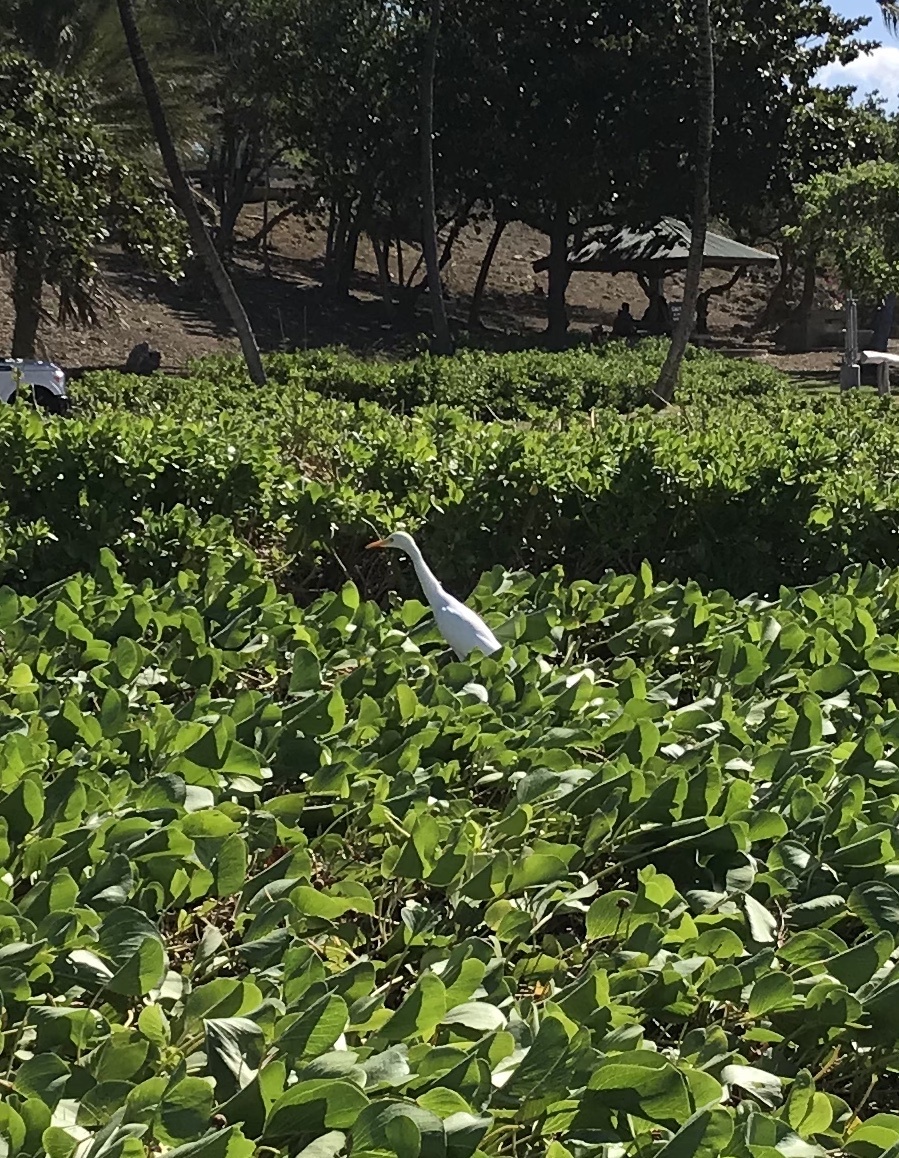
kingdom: Animalia
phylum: Chordata
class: Aves
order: Pelecaniformes
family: Ardeidae
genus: Bubulcus
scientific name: Bubulcus ibis
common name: Cattle egret
